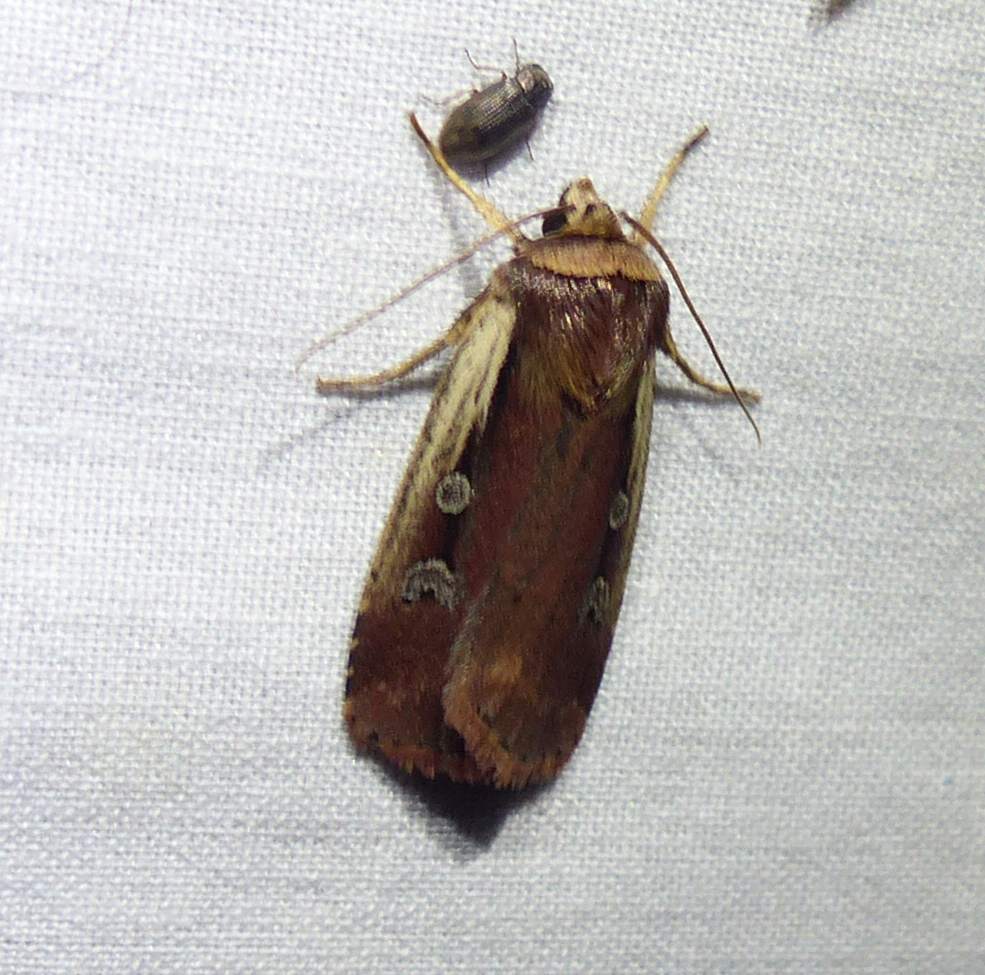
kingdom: Animalia
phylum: Arthropoda
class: Insecta
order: Lepidoptera
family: Noctuidae
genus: Ochropleura
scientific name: Ochropleura implecta
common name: Flame-shouldered dart
